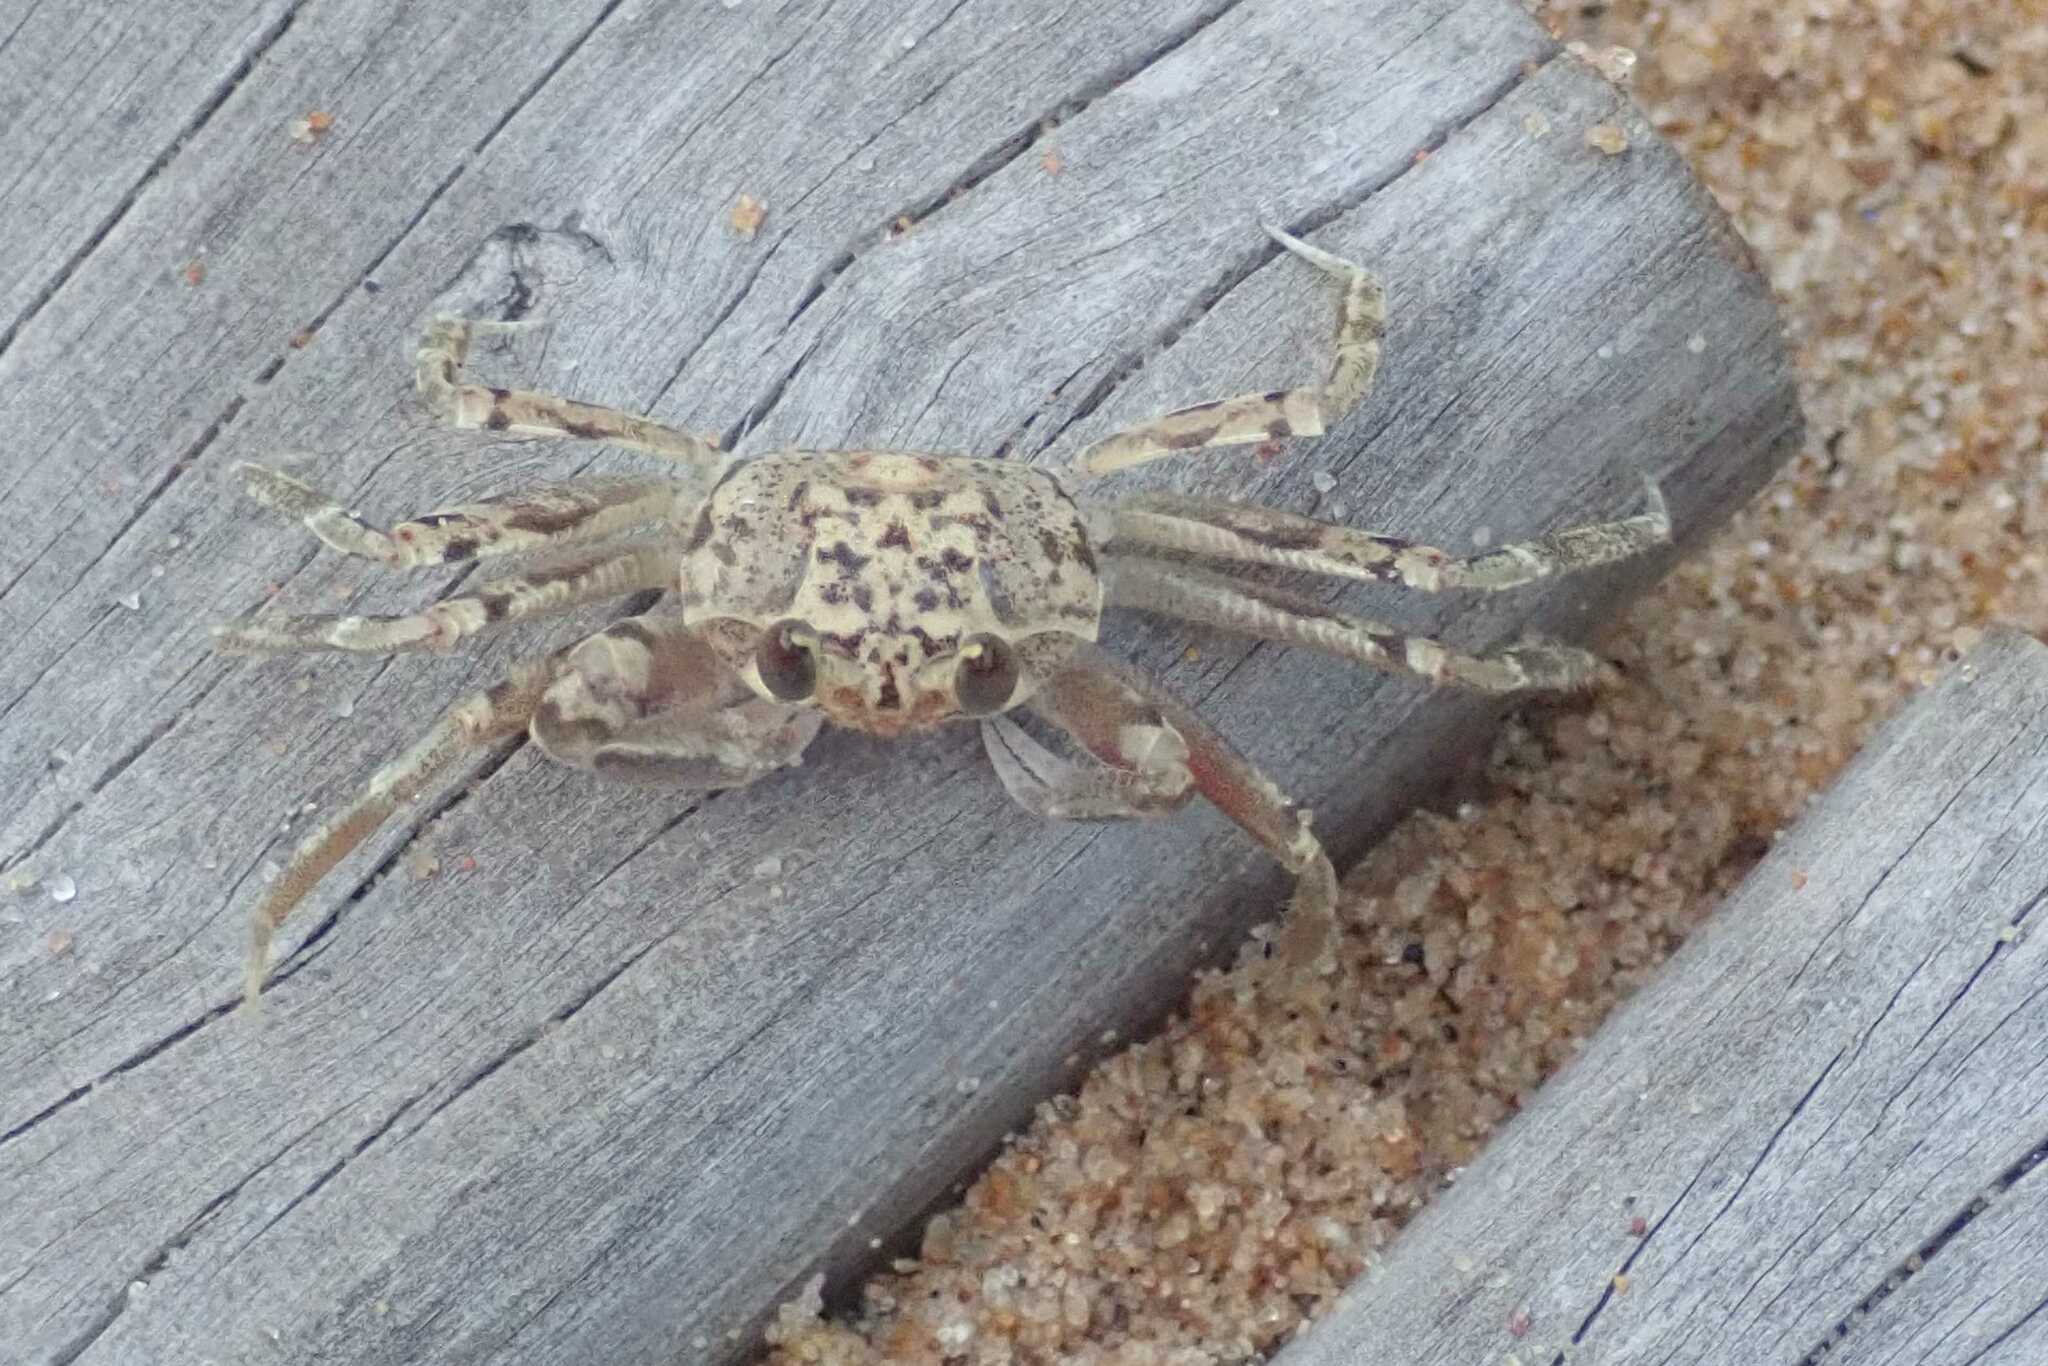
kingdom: Animalia
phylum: Arthropoda
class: Malacostraca
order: Decapoda
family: Ocypodidae
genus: Ocypode
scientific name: Ocypode
